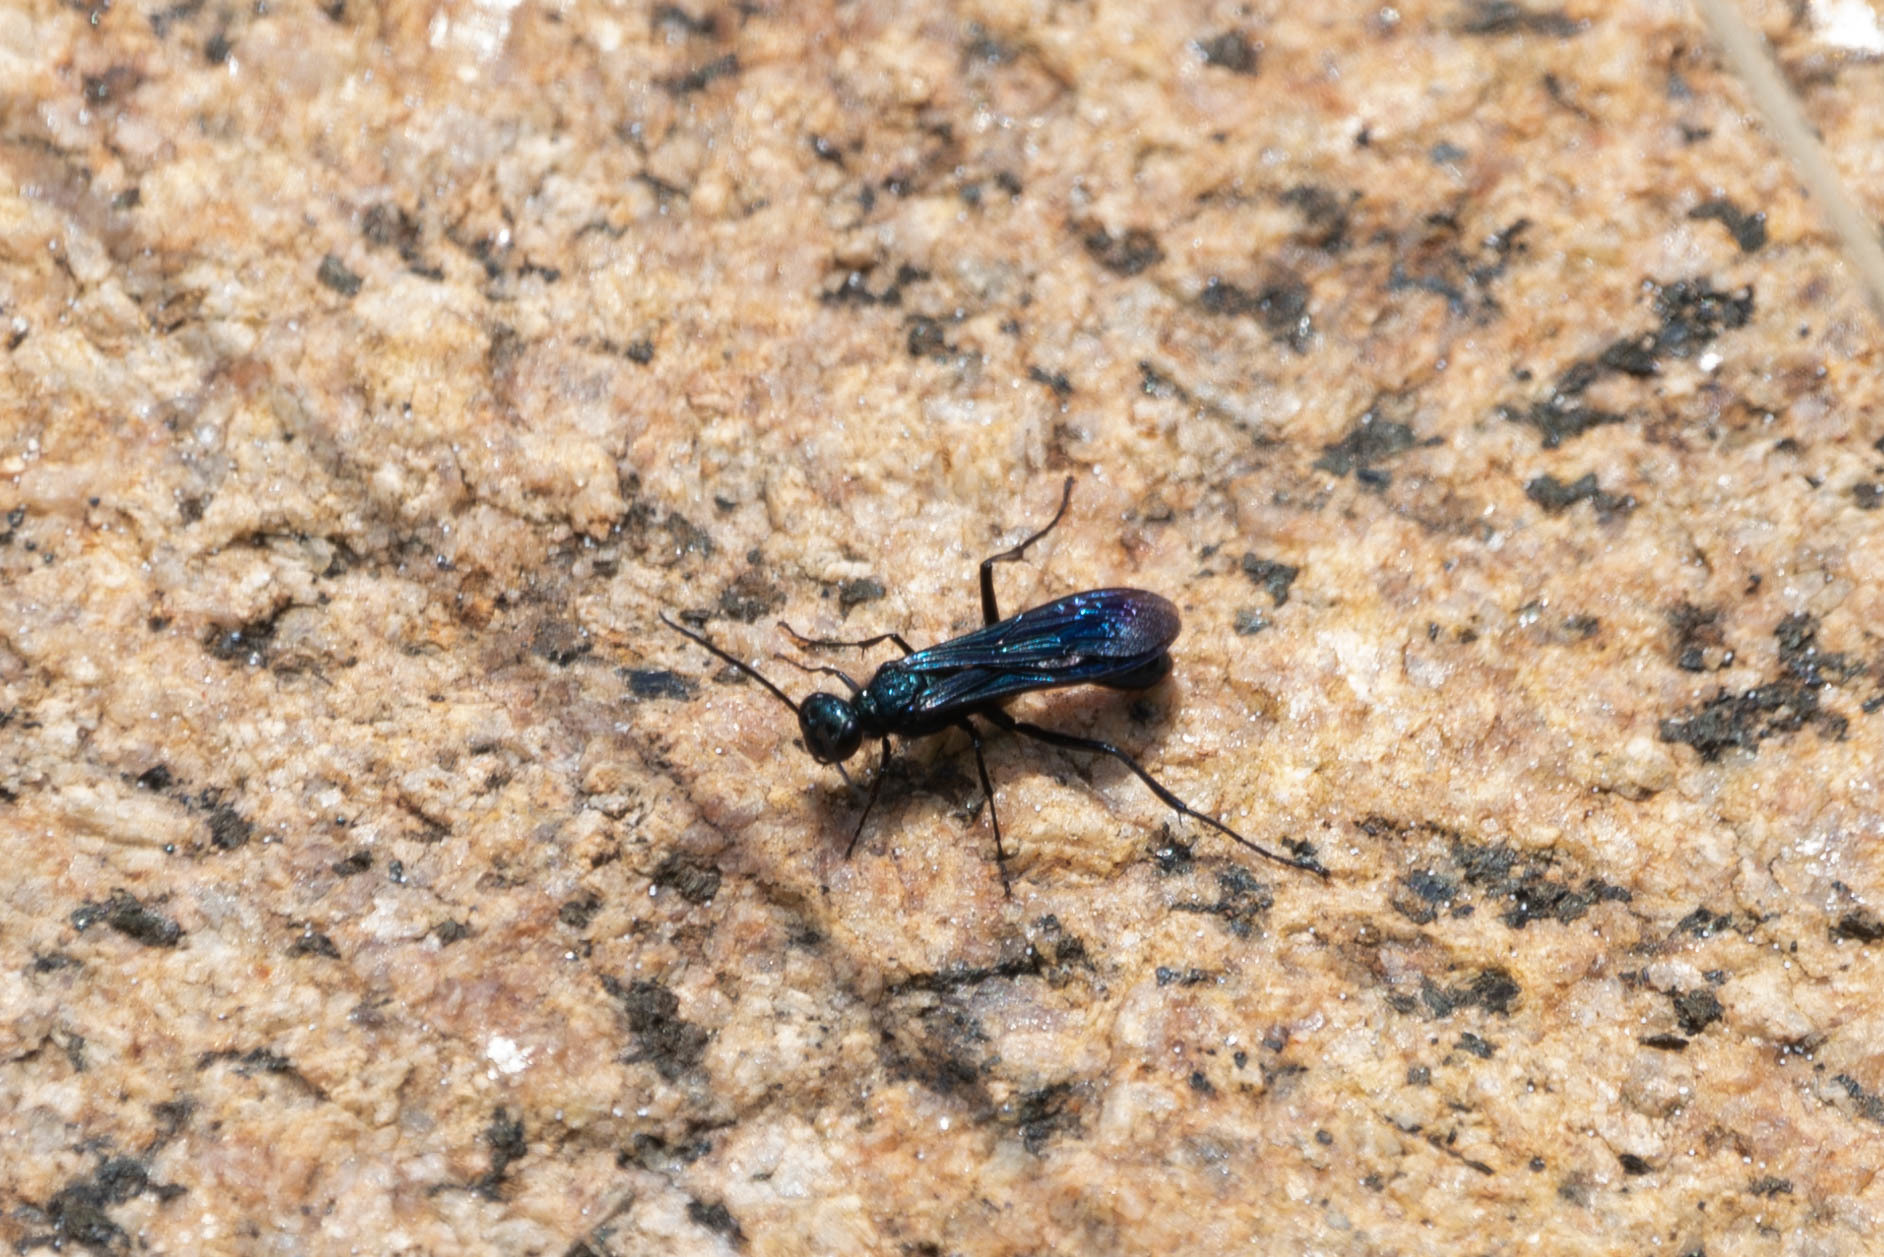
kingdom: Animalia
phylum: Arthropoda
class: Insecta
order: Hymenoptera
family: Sphecidae
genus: Chalybion
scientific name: Chalybion californicum
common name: Mud dauber
